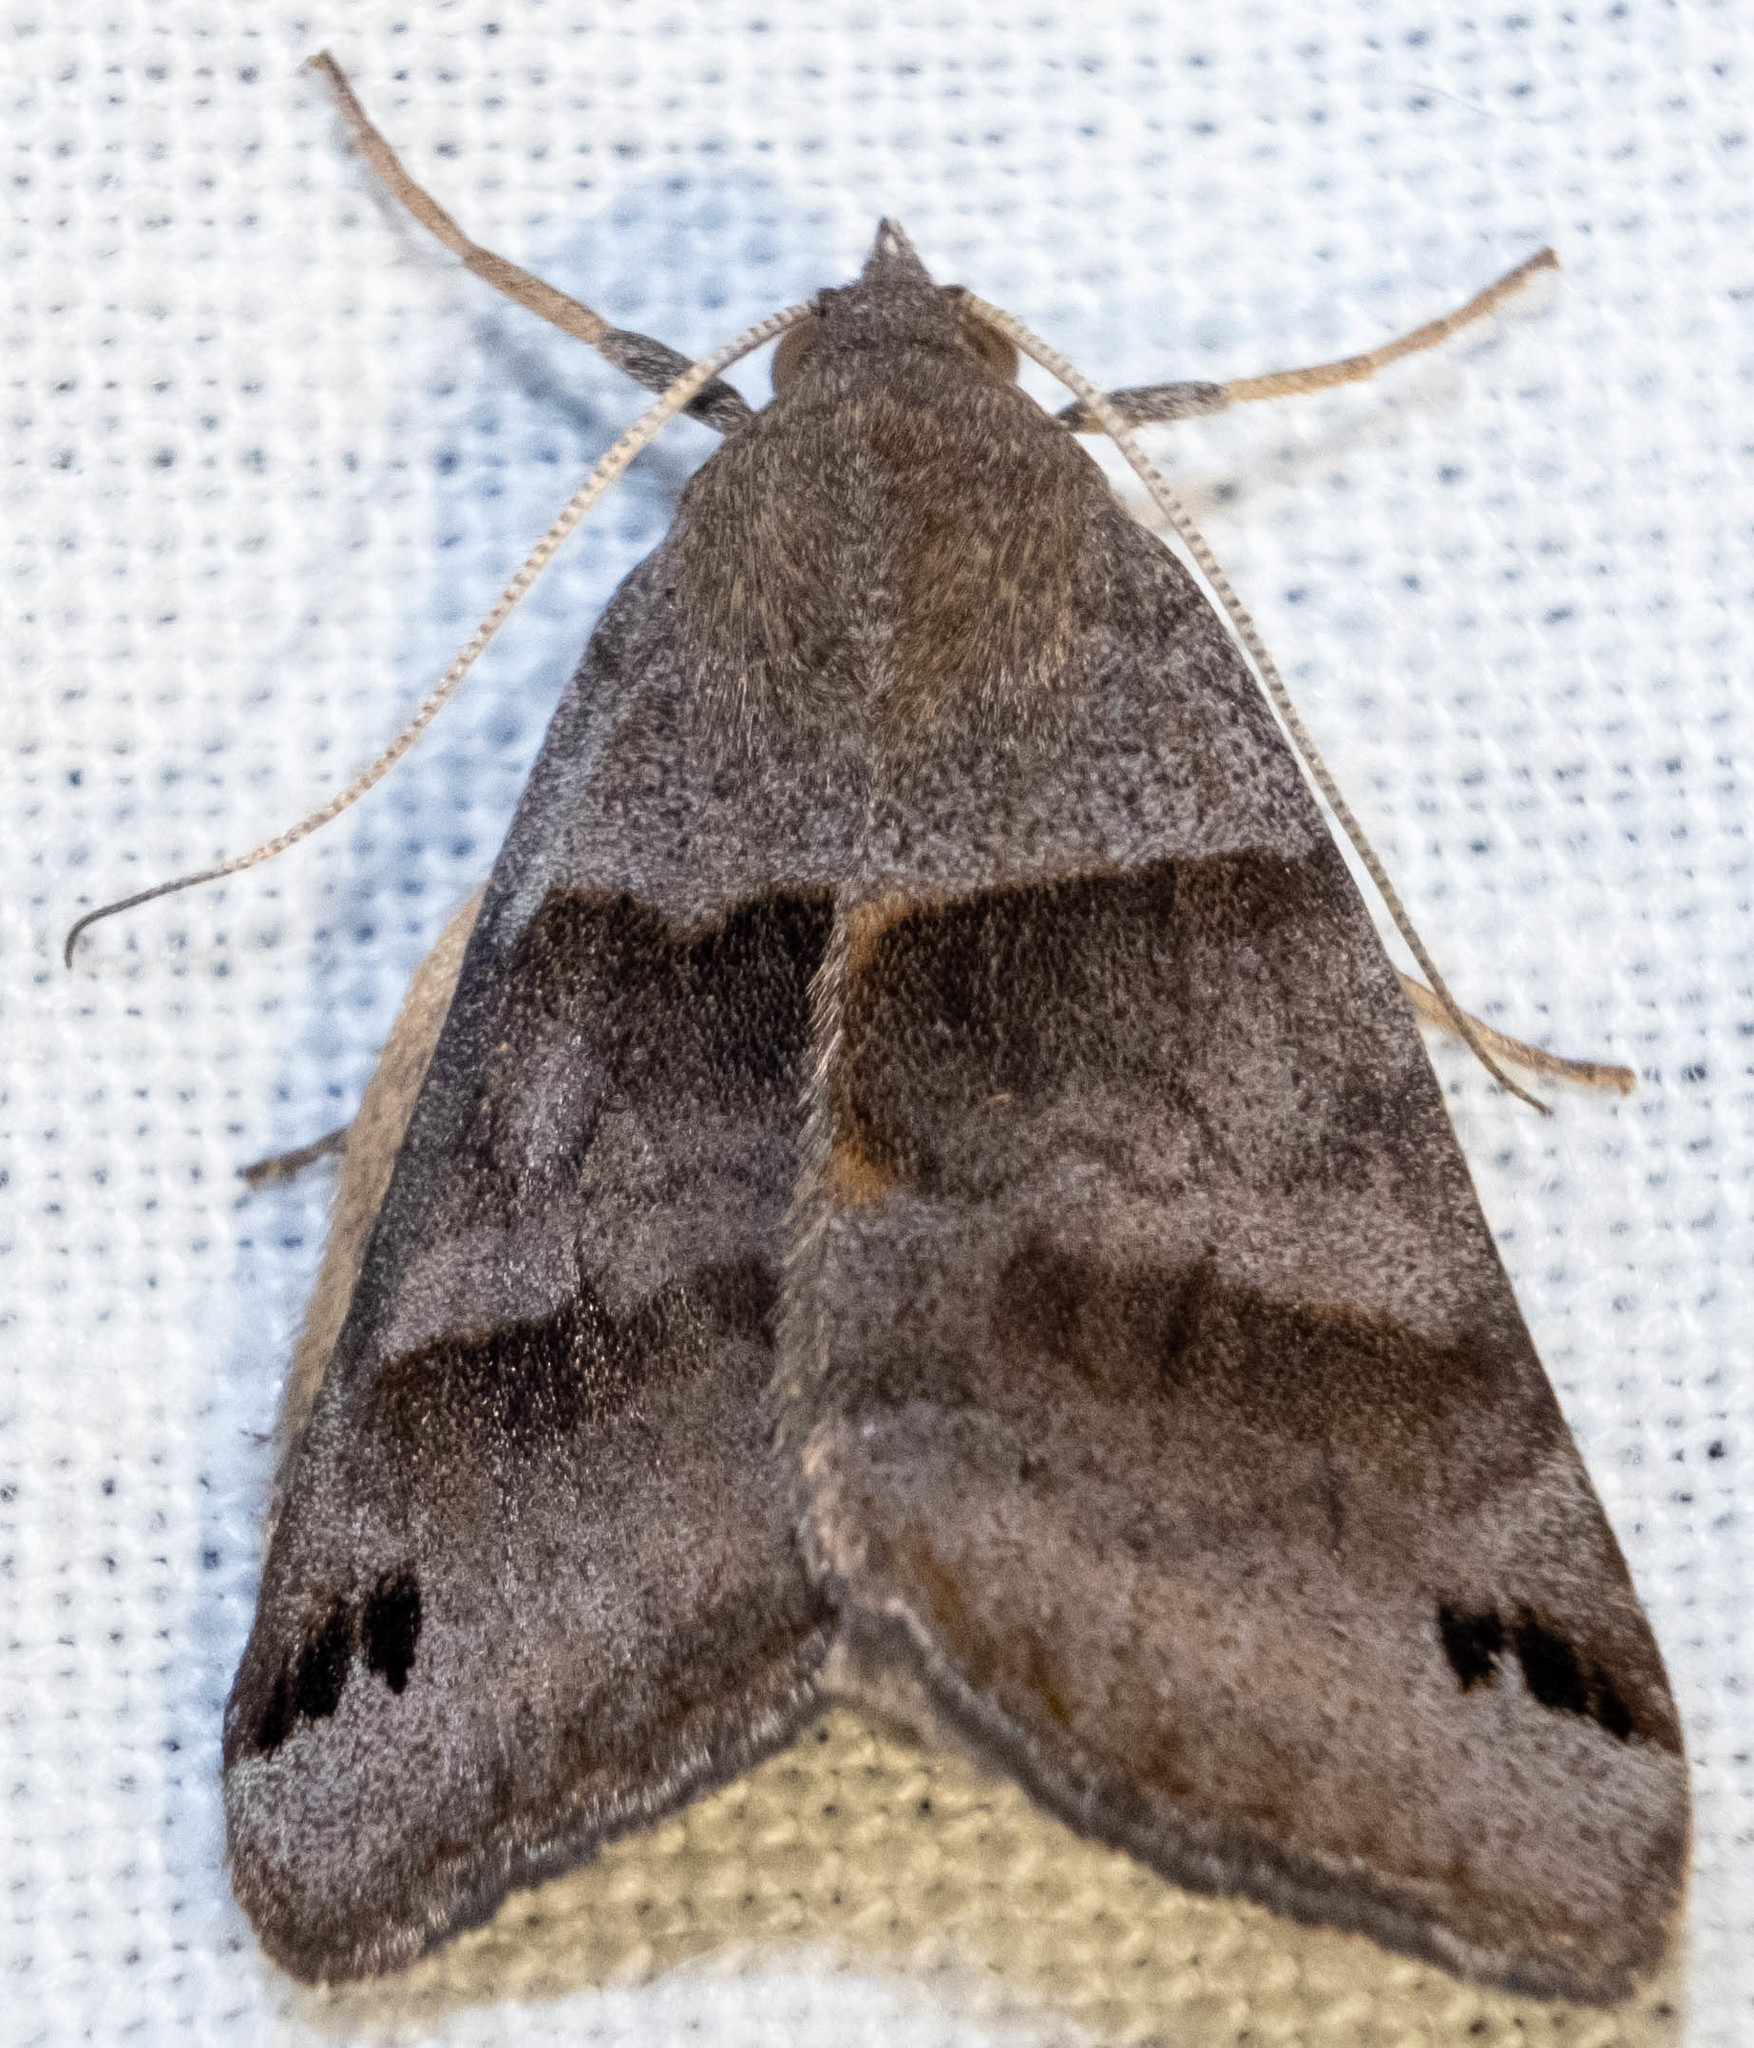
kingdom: Animalia
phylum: Arthropoda
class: Insecta
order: Lepidoptera
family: Erebidae
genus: Caenurgina
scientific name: Caenurgina erechtea
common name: Forage looper moth
